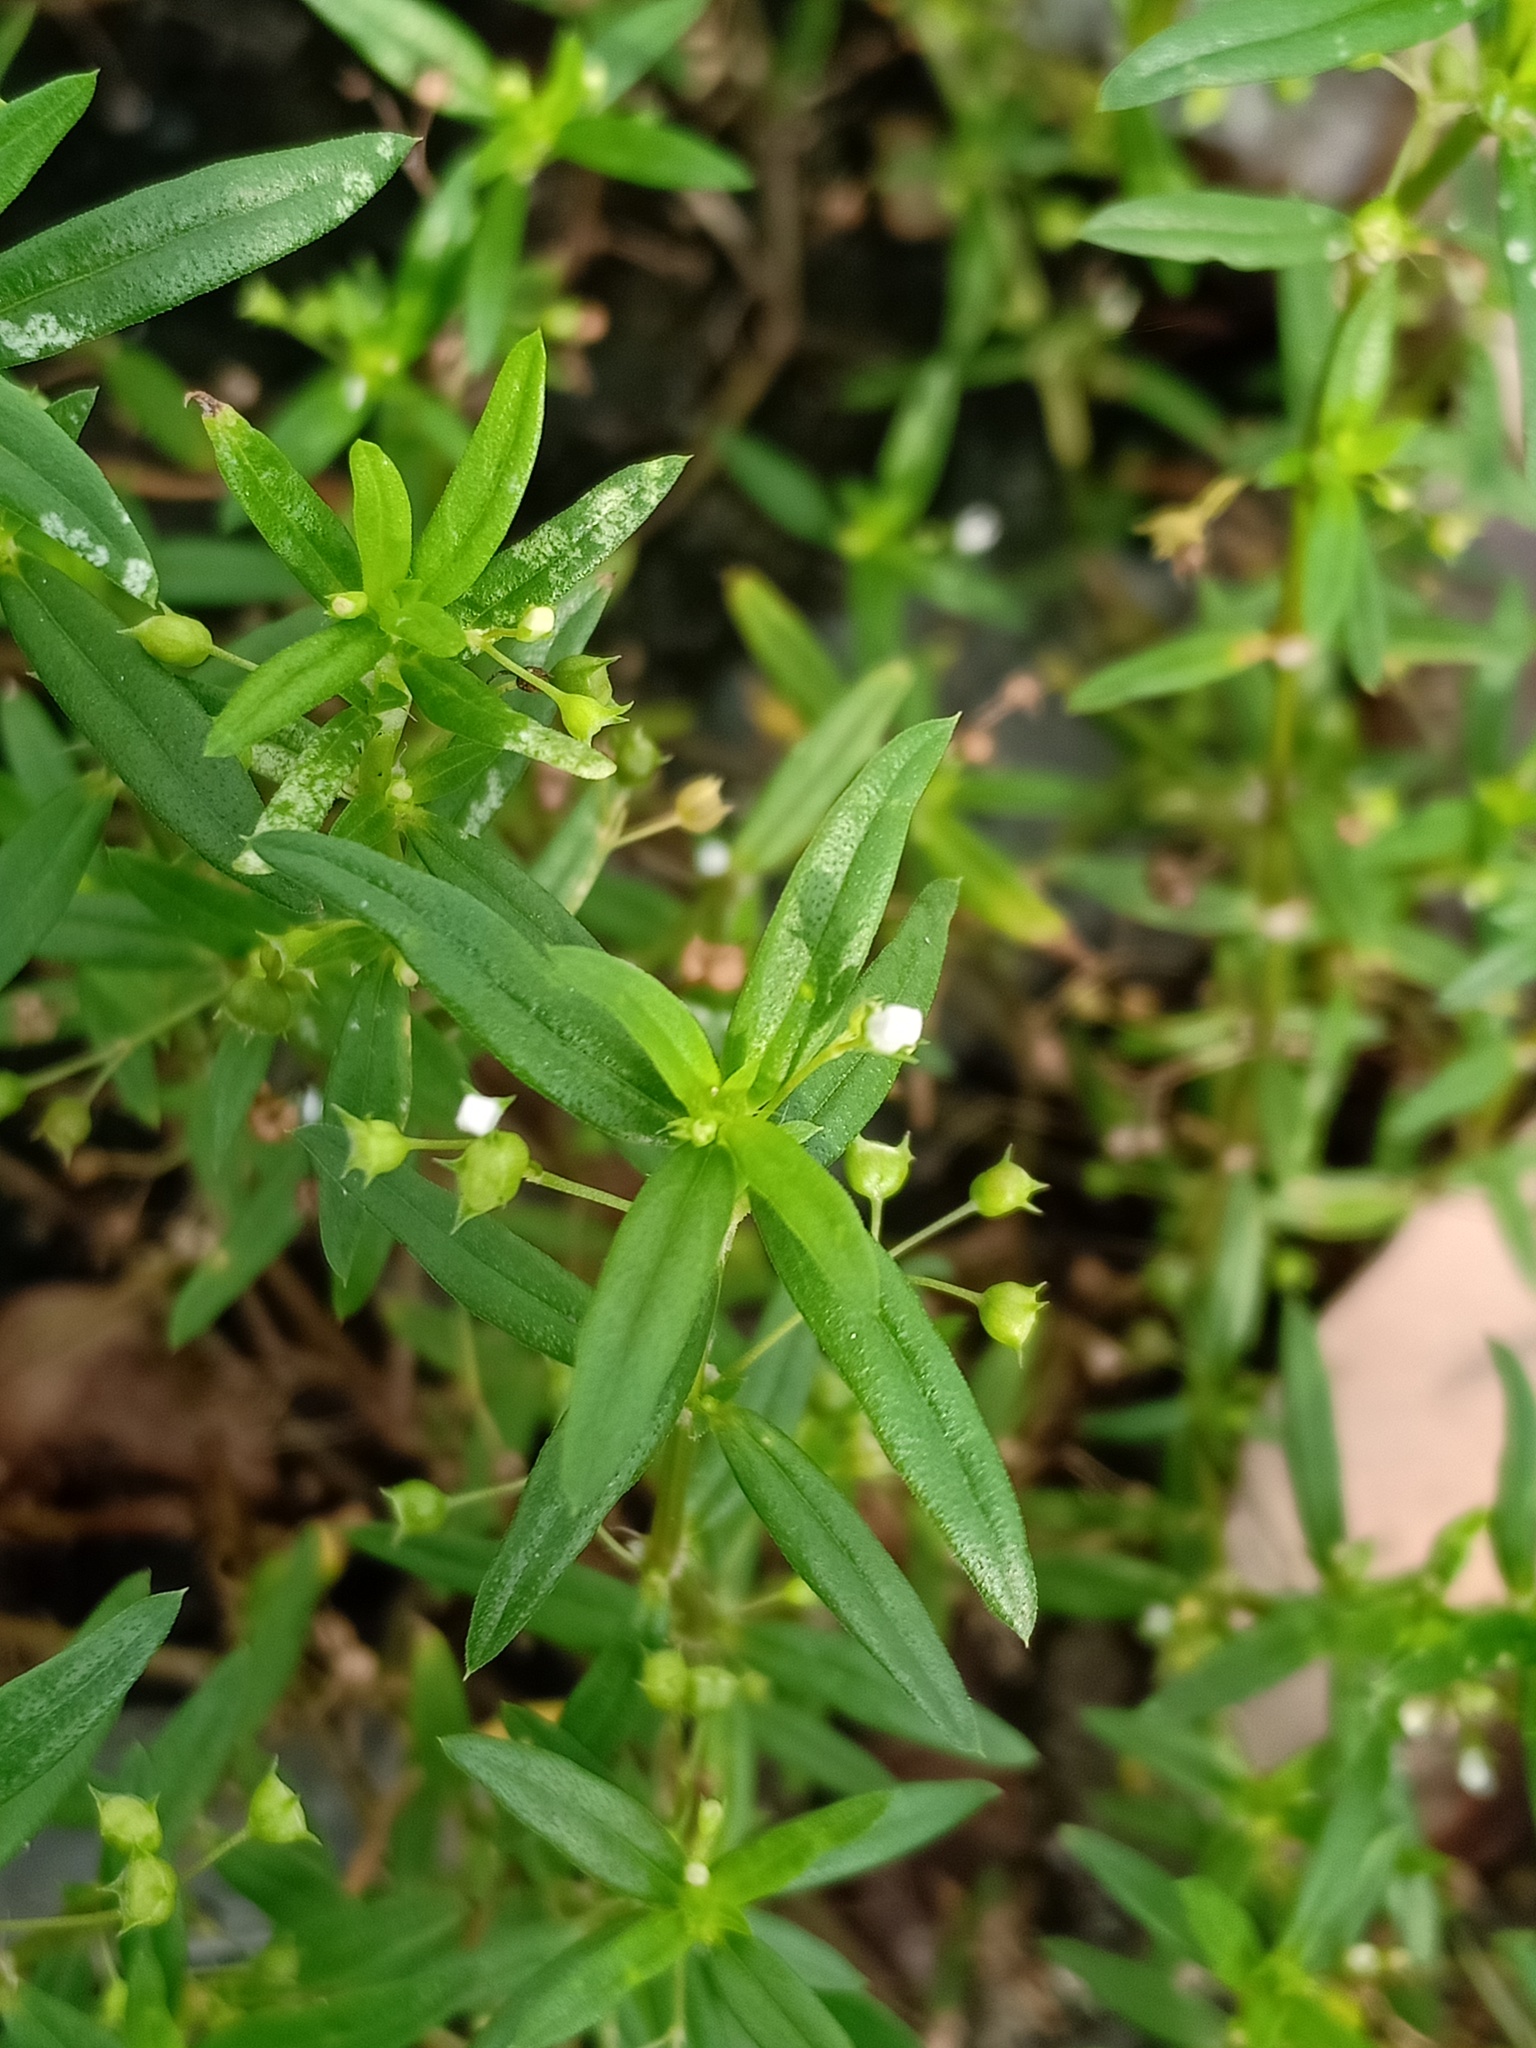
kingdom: Plantae
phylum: Tracheophyta
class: Magnoliopsida
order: Gentianales
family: Rubiaceae
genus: Oldenlandia
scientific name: Oldenlandia corymbosa
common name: Flat-top mille graines
